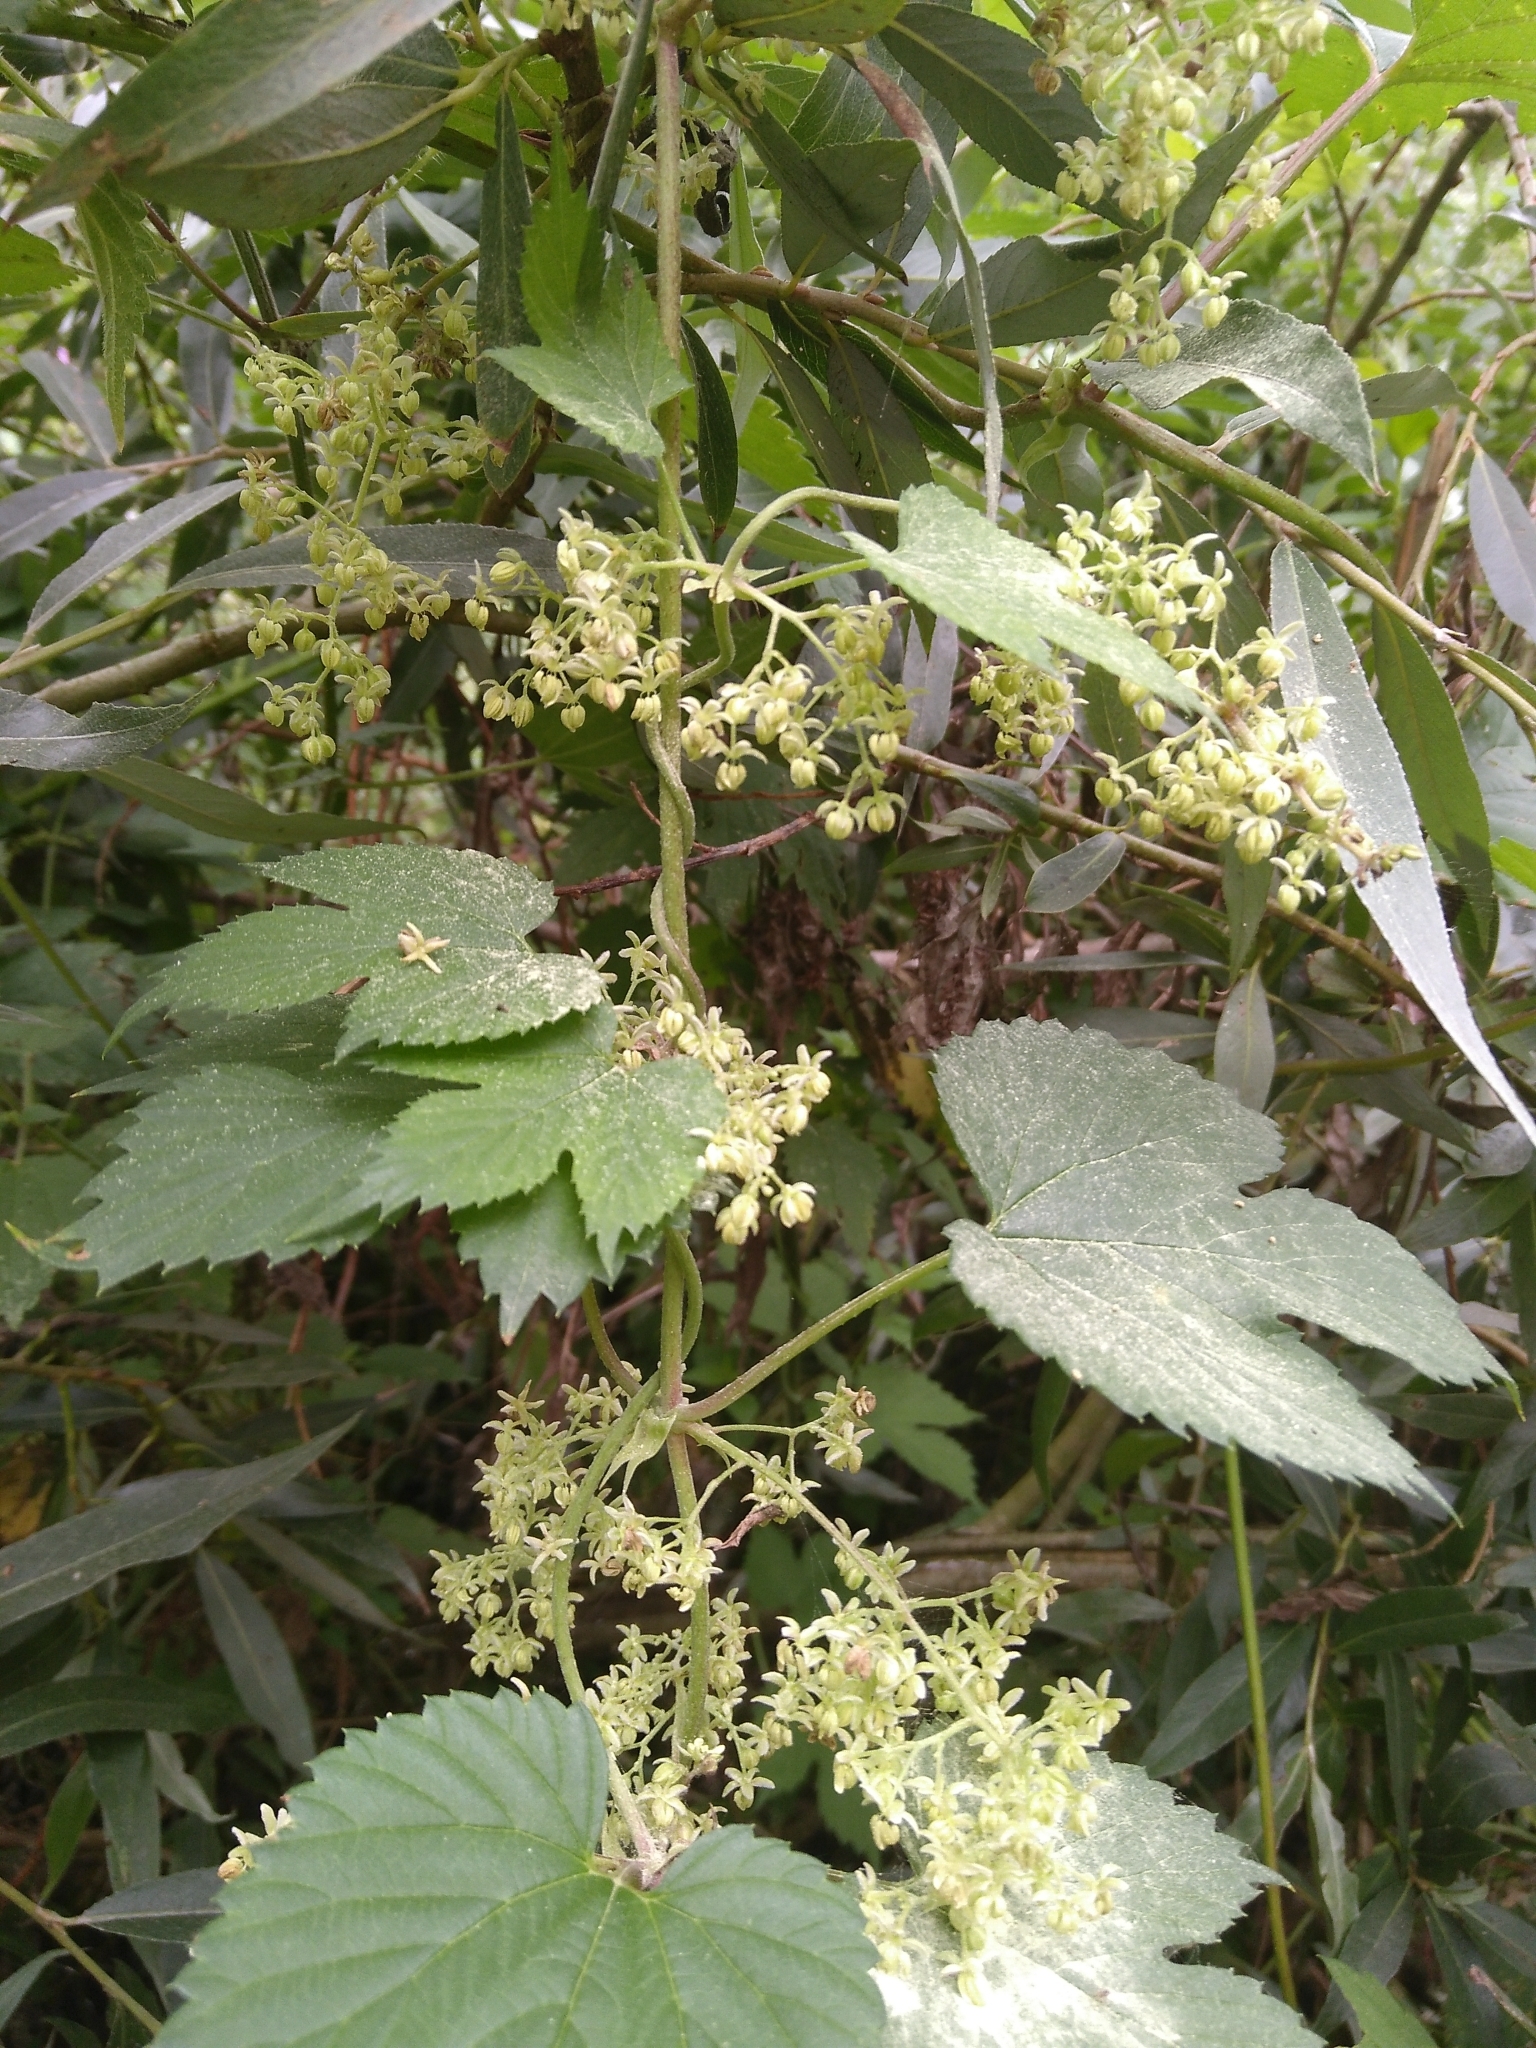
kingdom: Plantae
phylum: Tracheophyta
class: Magnoliopsida
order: Rosales
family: Cannabaceae
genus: Humulus
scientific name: Humulus lupulus
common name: Hop
